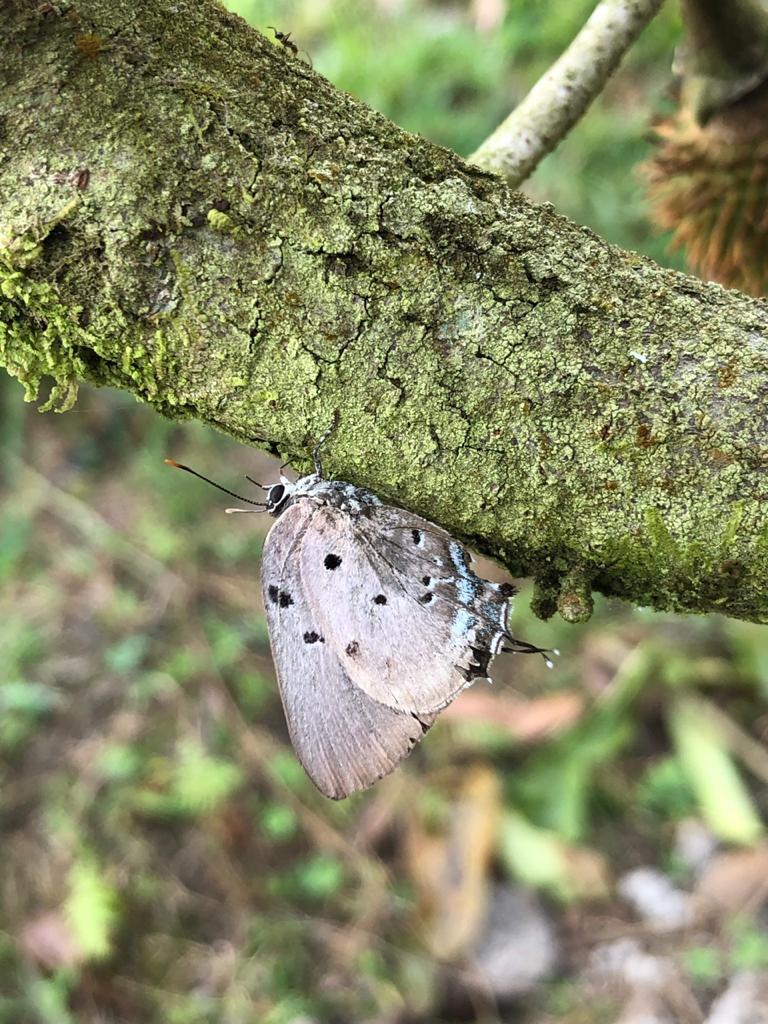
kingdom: Animalia
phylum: Arthropoda
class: Insecta
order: Lepidoptera
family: Lycaenidae
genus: Oenomaus
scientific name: Oenomaus ortygnus
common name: Aquamarine hairstreak
